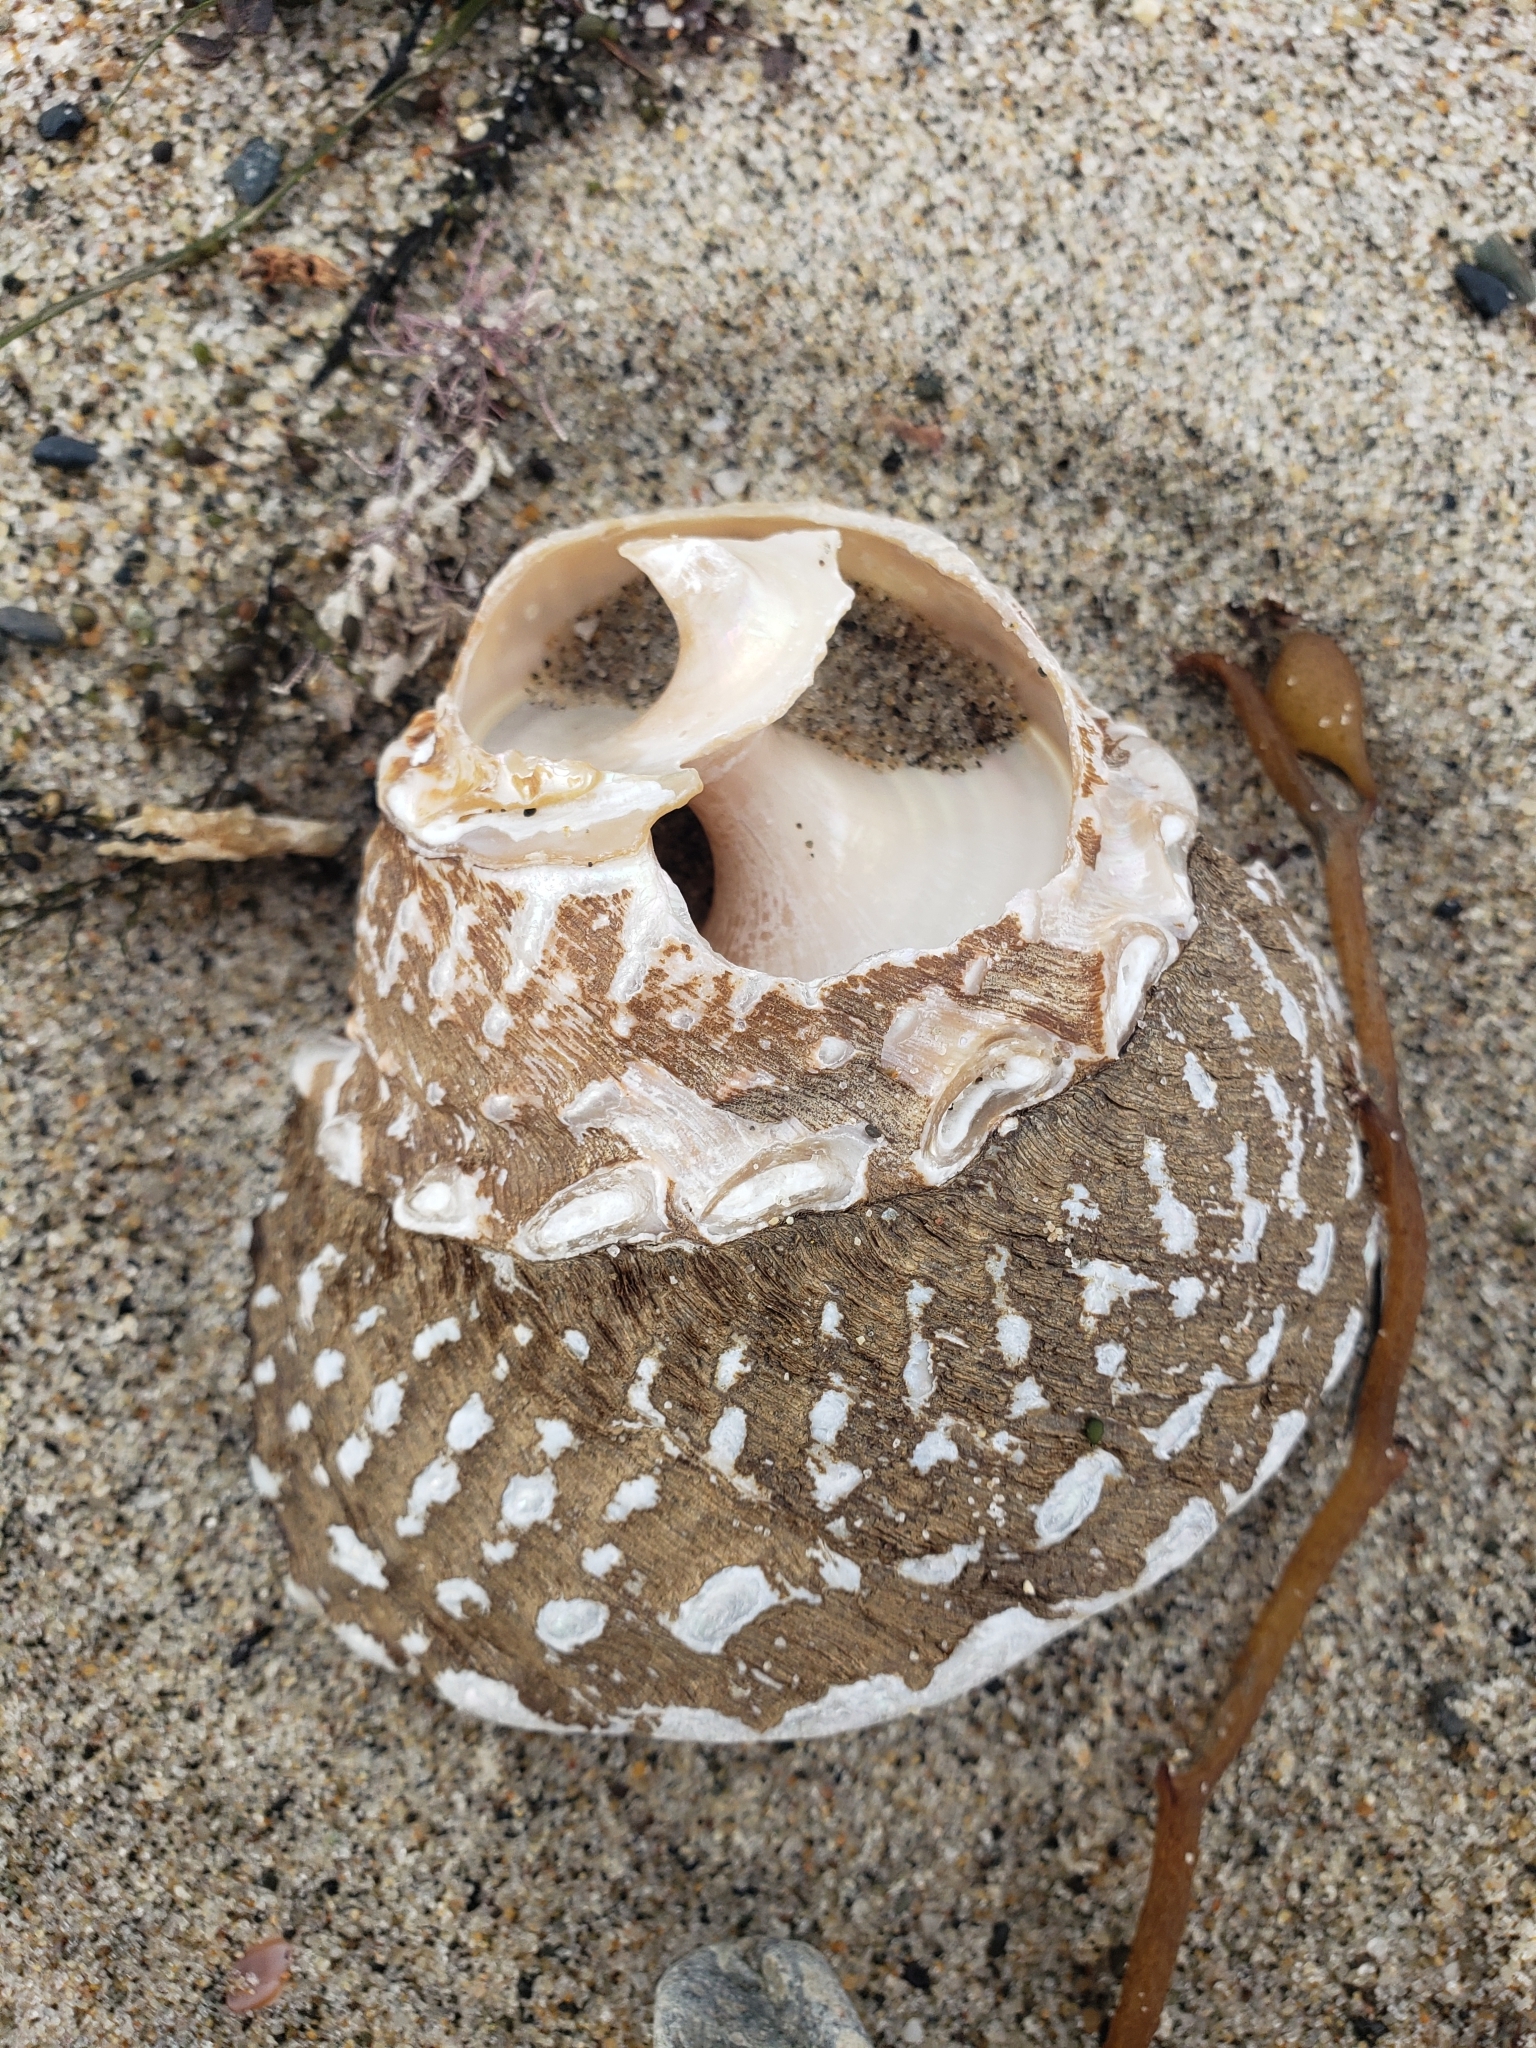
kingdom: Animalia
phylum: Mollusca
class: Gastropoda
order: Trochida
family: Turbinidae
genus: Megastraea
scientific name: Megastraea undosa
